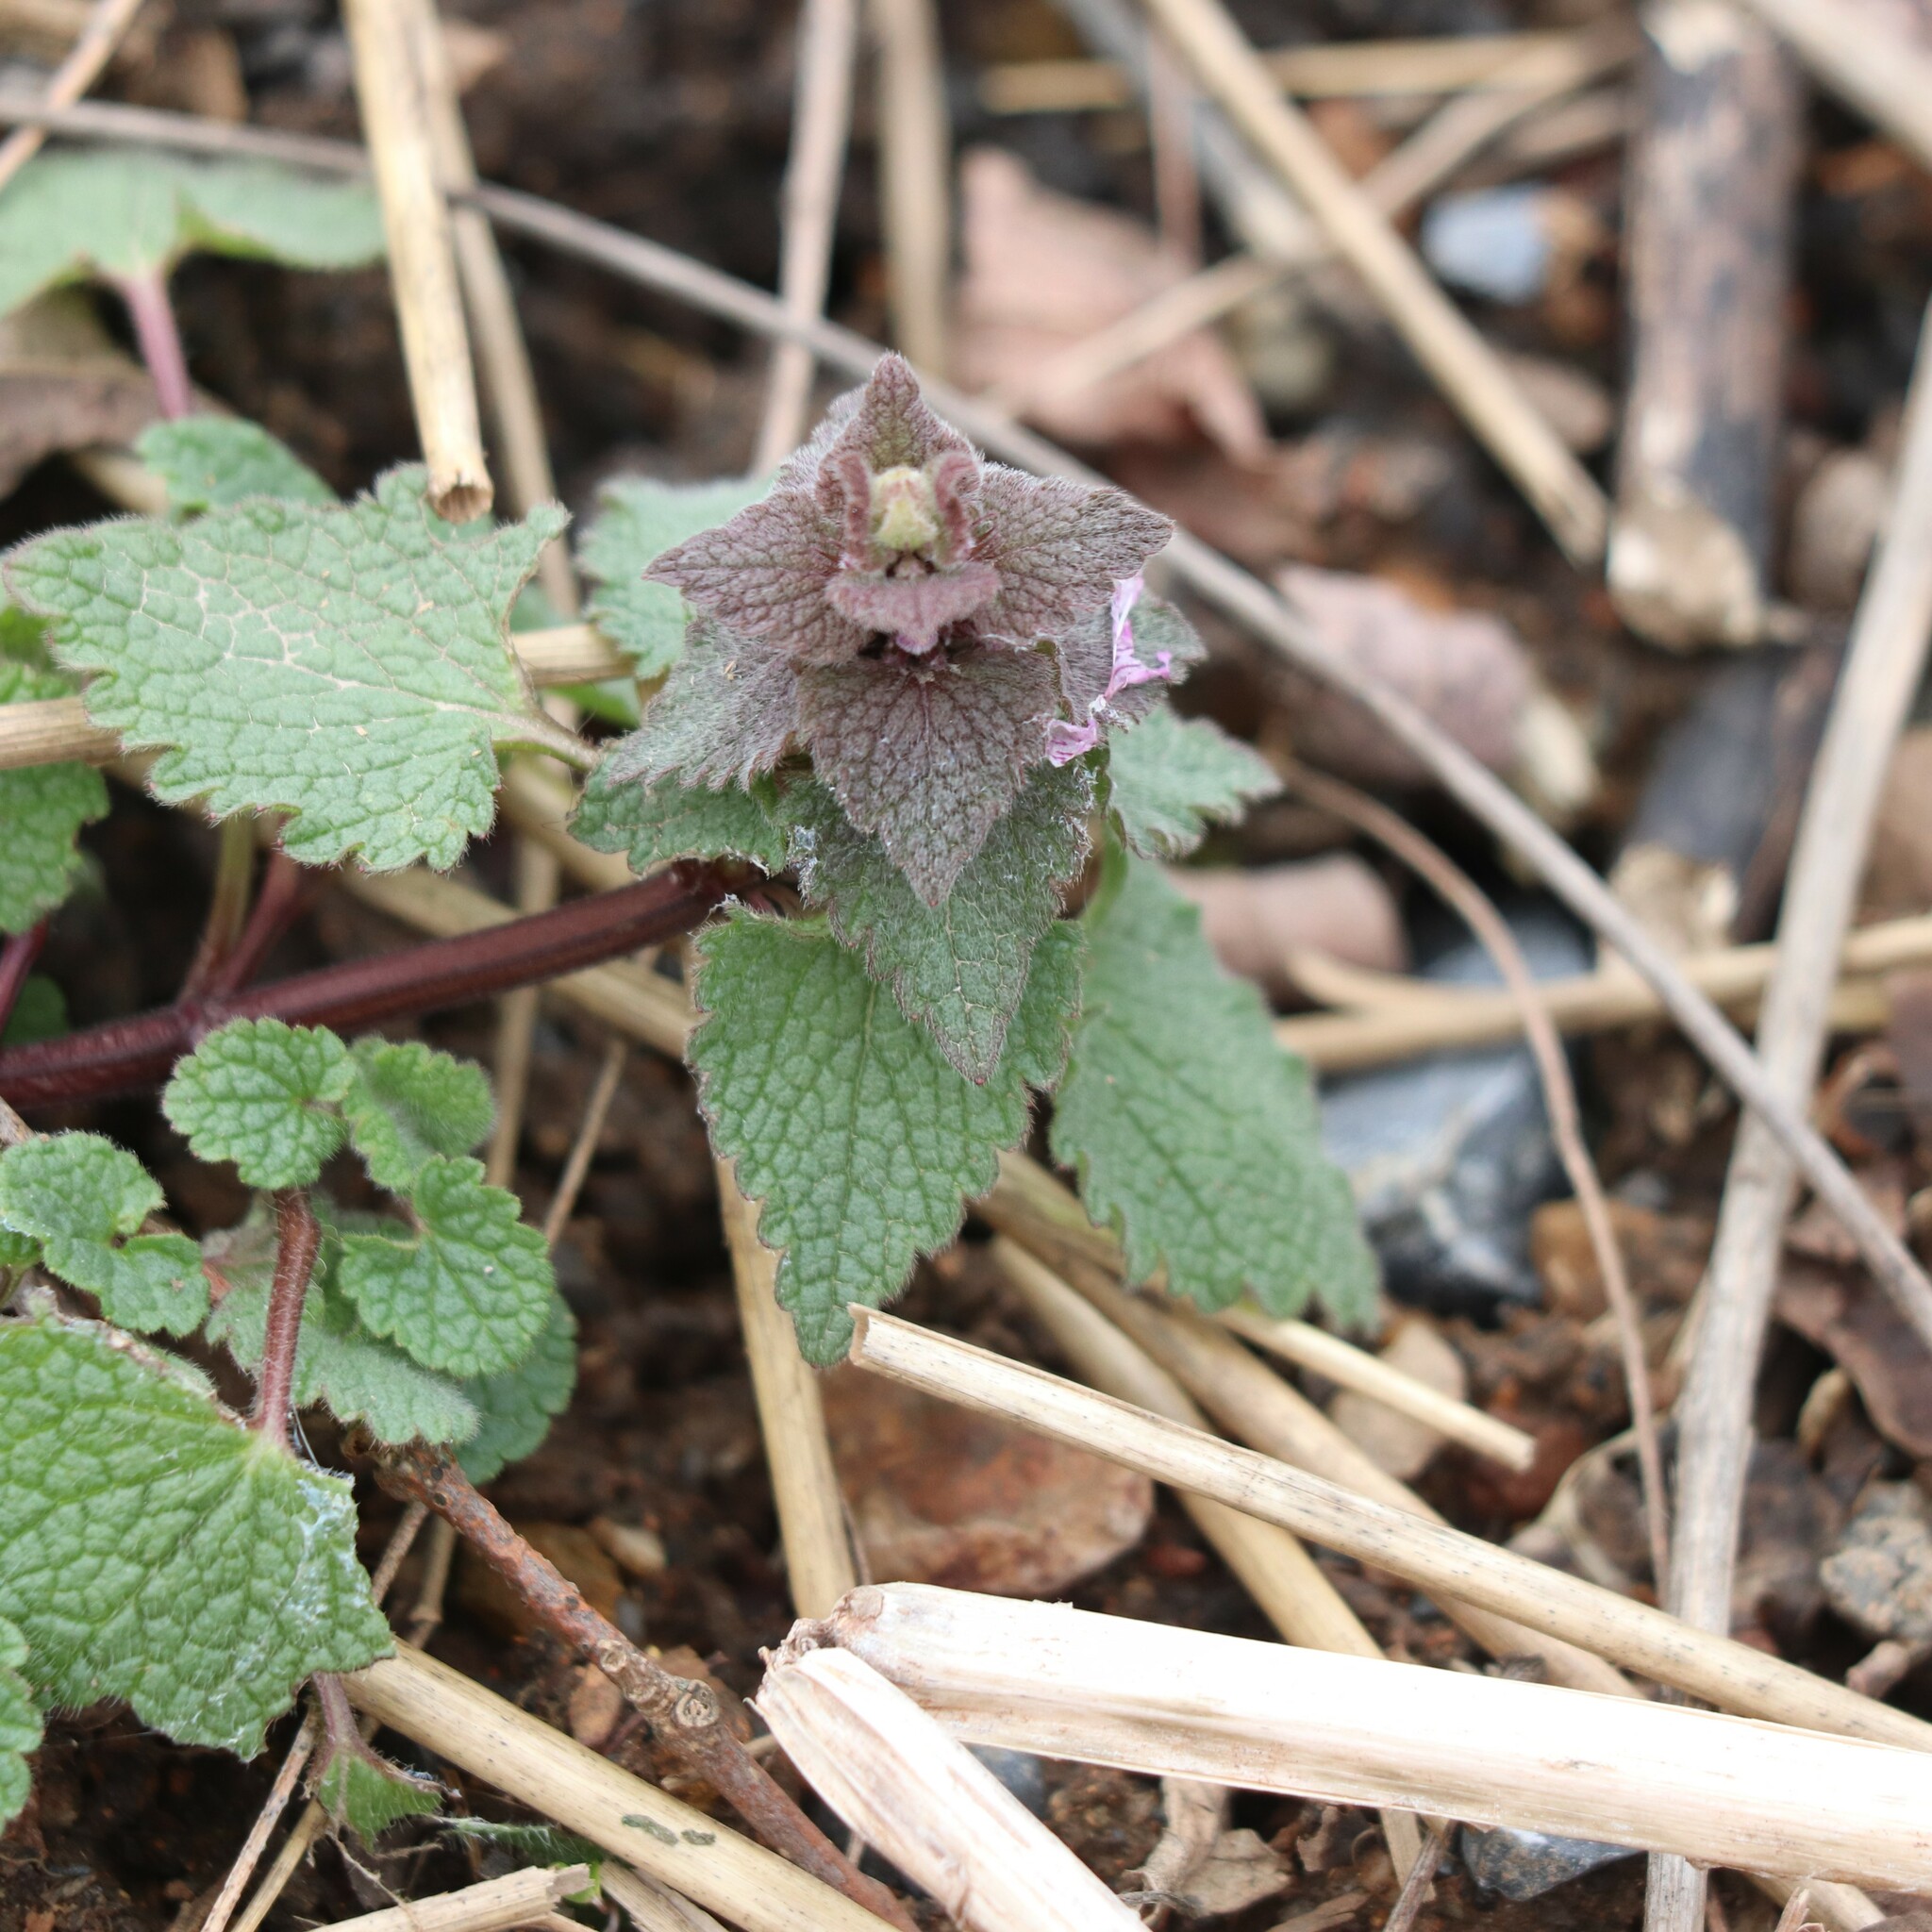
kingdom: Plantae
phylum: Tracheophyta
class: Magnoliopsida
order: Lamiales
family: Lamiaceae
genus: Lamium
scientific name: Lamium purpureum
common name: Red dead-nettle
